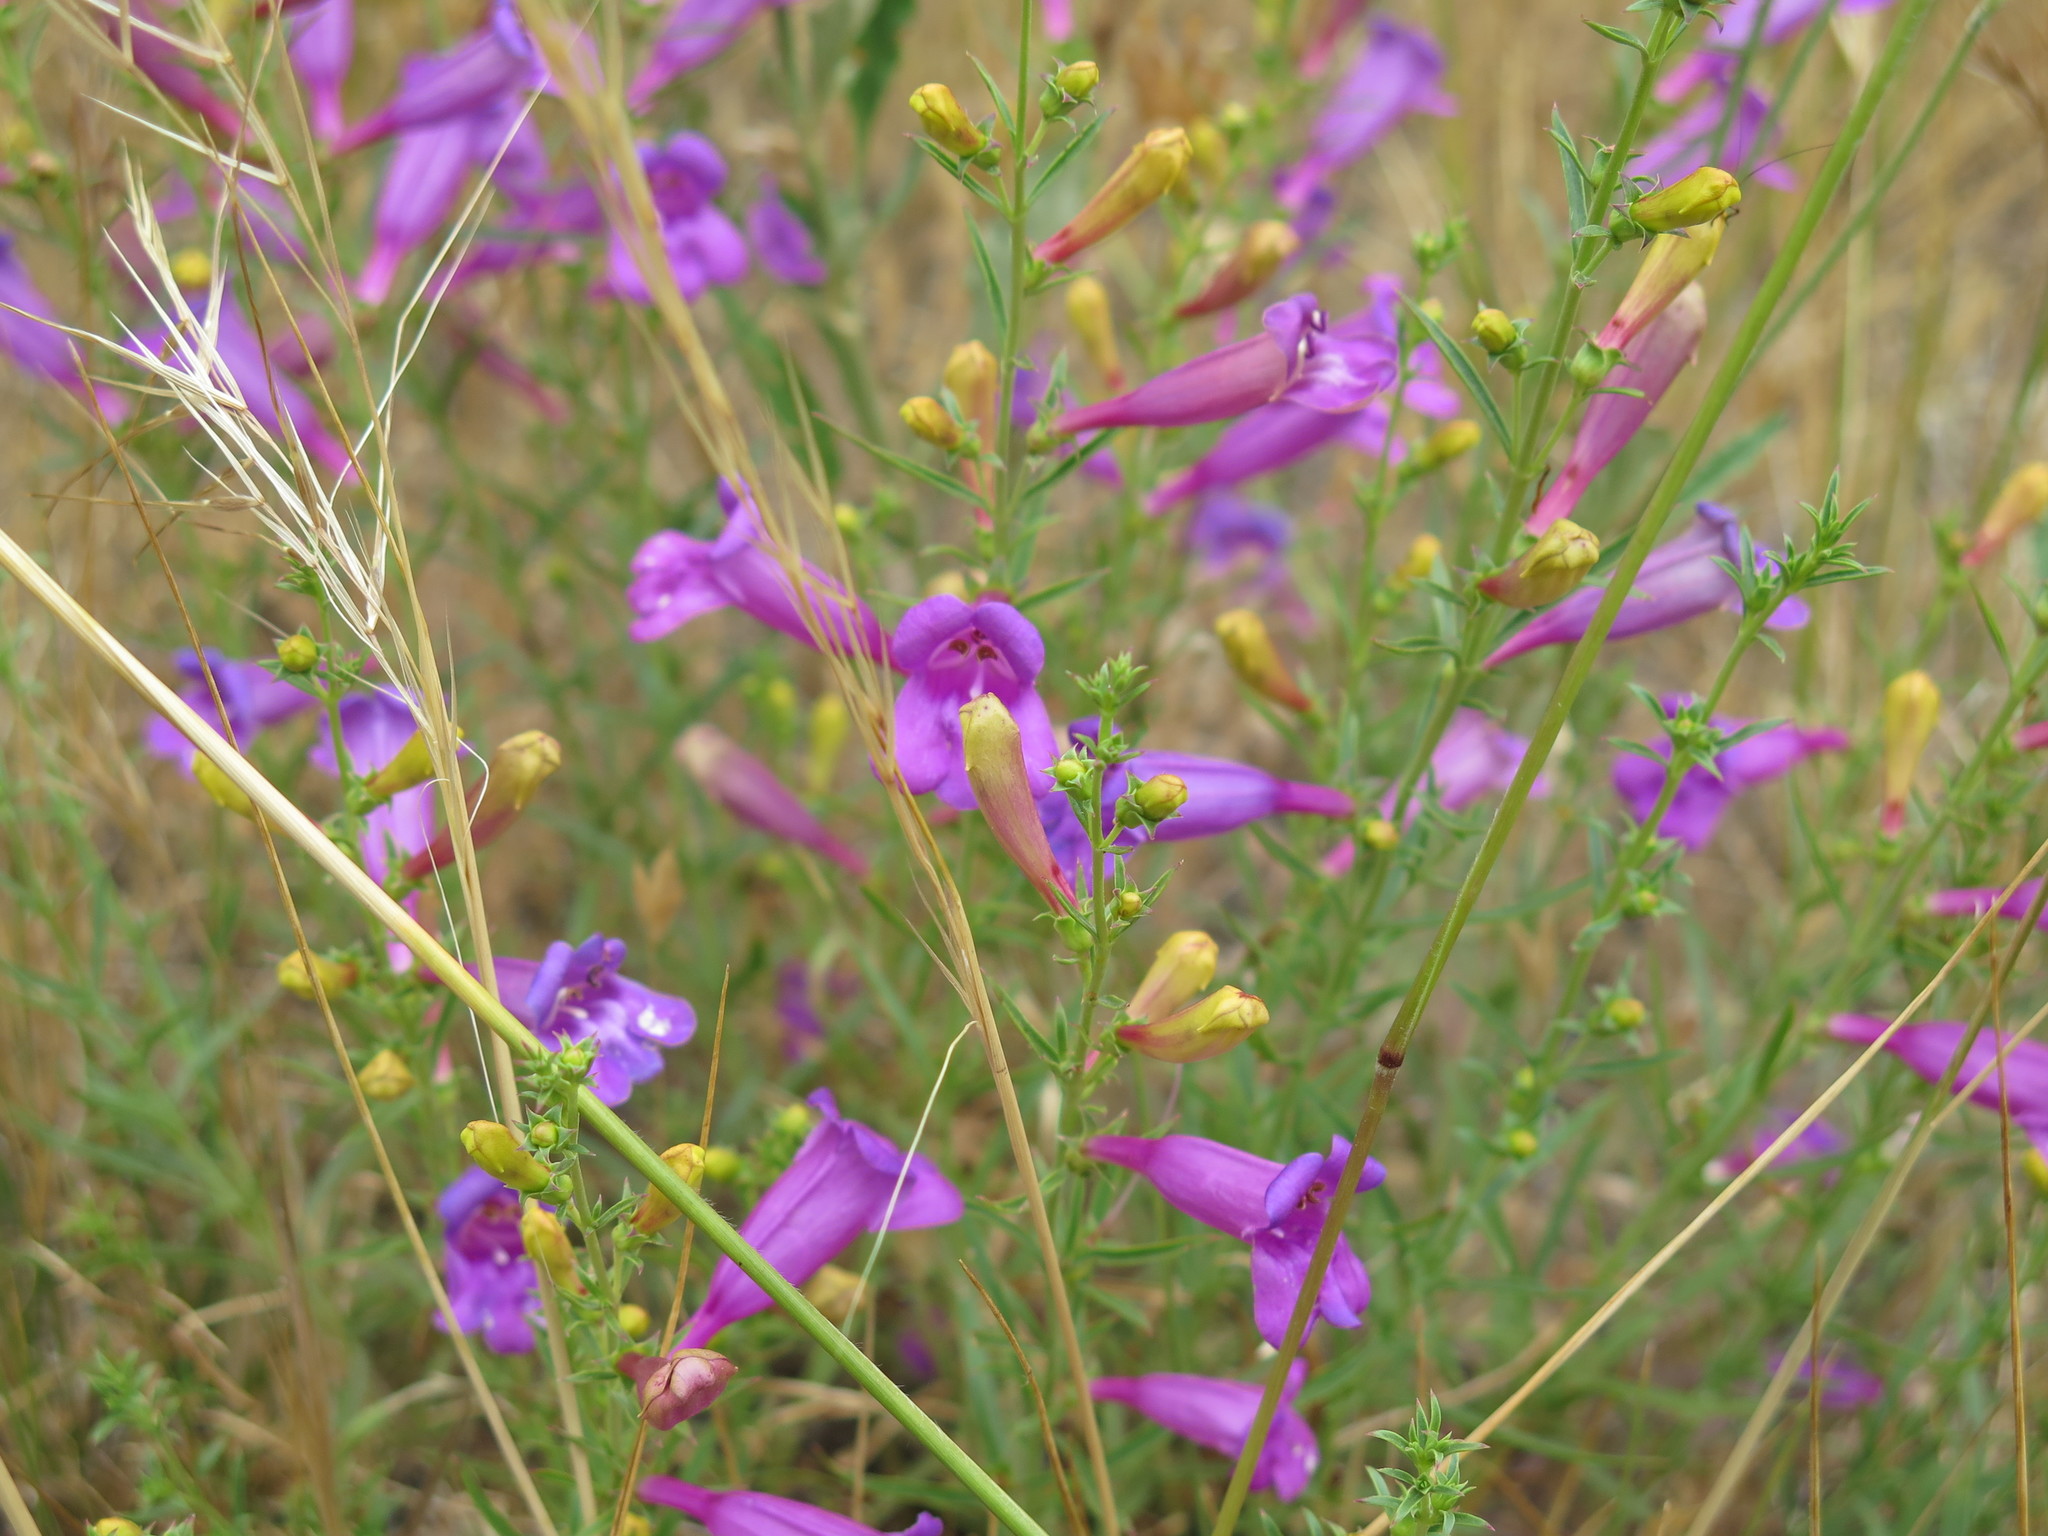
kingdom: Plantae
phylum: Tracheophyta
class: Magnoliopsida
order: Lamiales
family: Plantaginaceae
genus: Penstemon
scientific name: Penstemon heterophyllus
